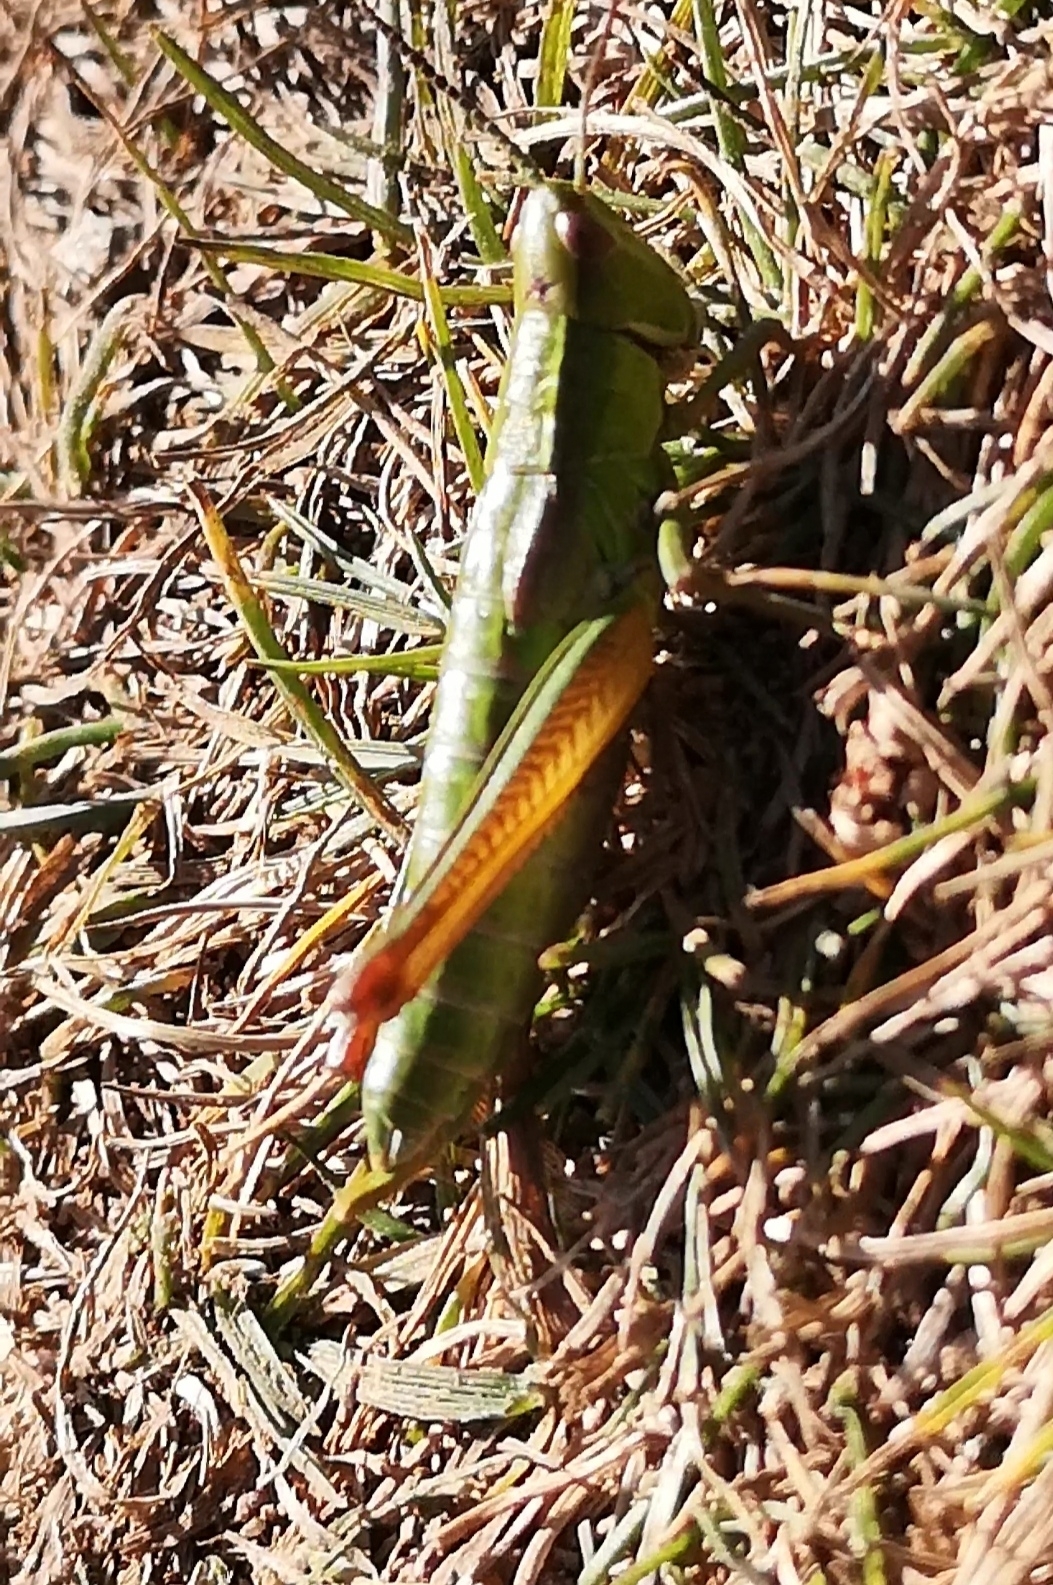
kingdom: Animalia
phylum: Arthropoda
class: Insecta
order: Orthoptera
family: Acrididae
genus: Euthystira
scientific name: Euthystira brachyptera
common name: Small gold grasshopper
